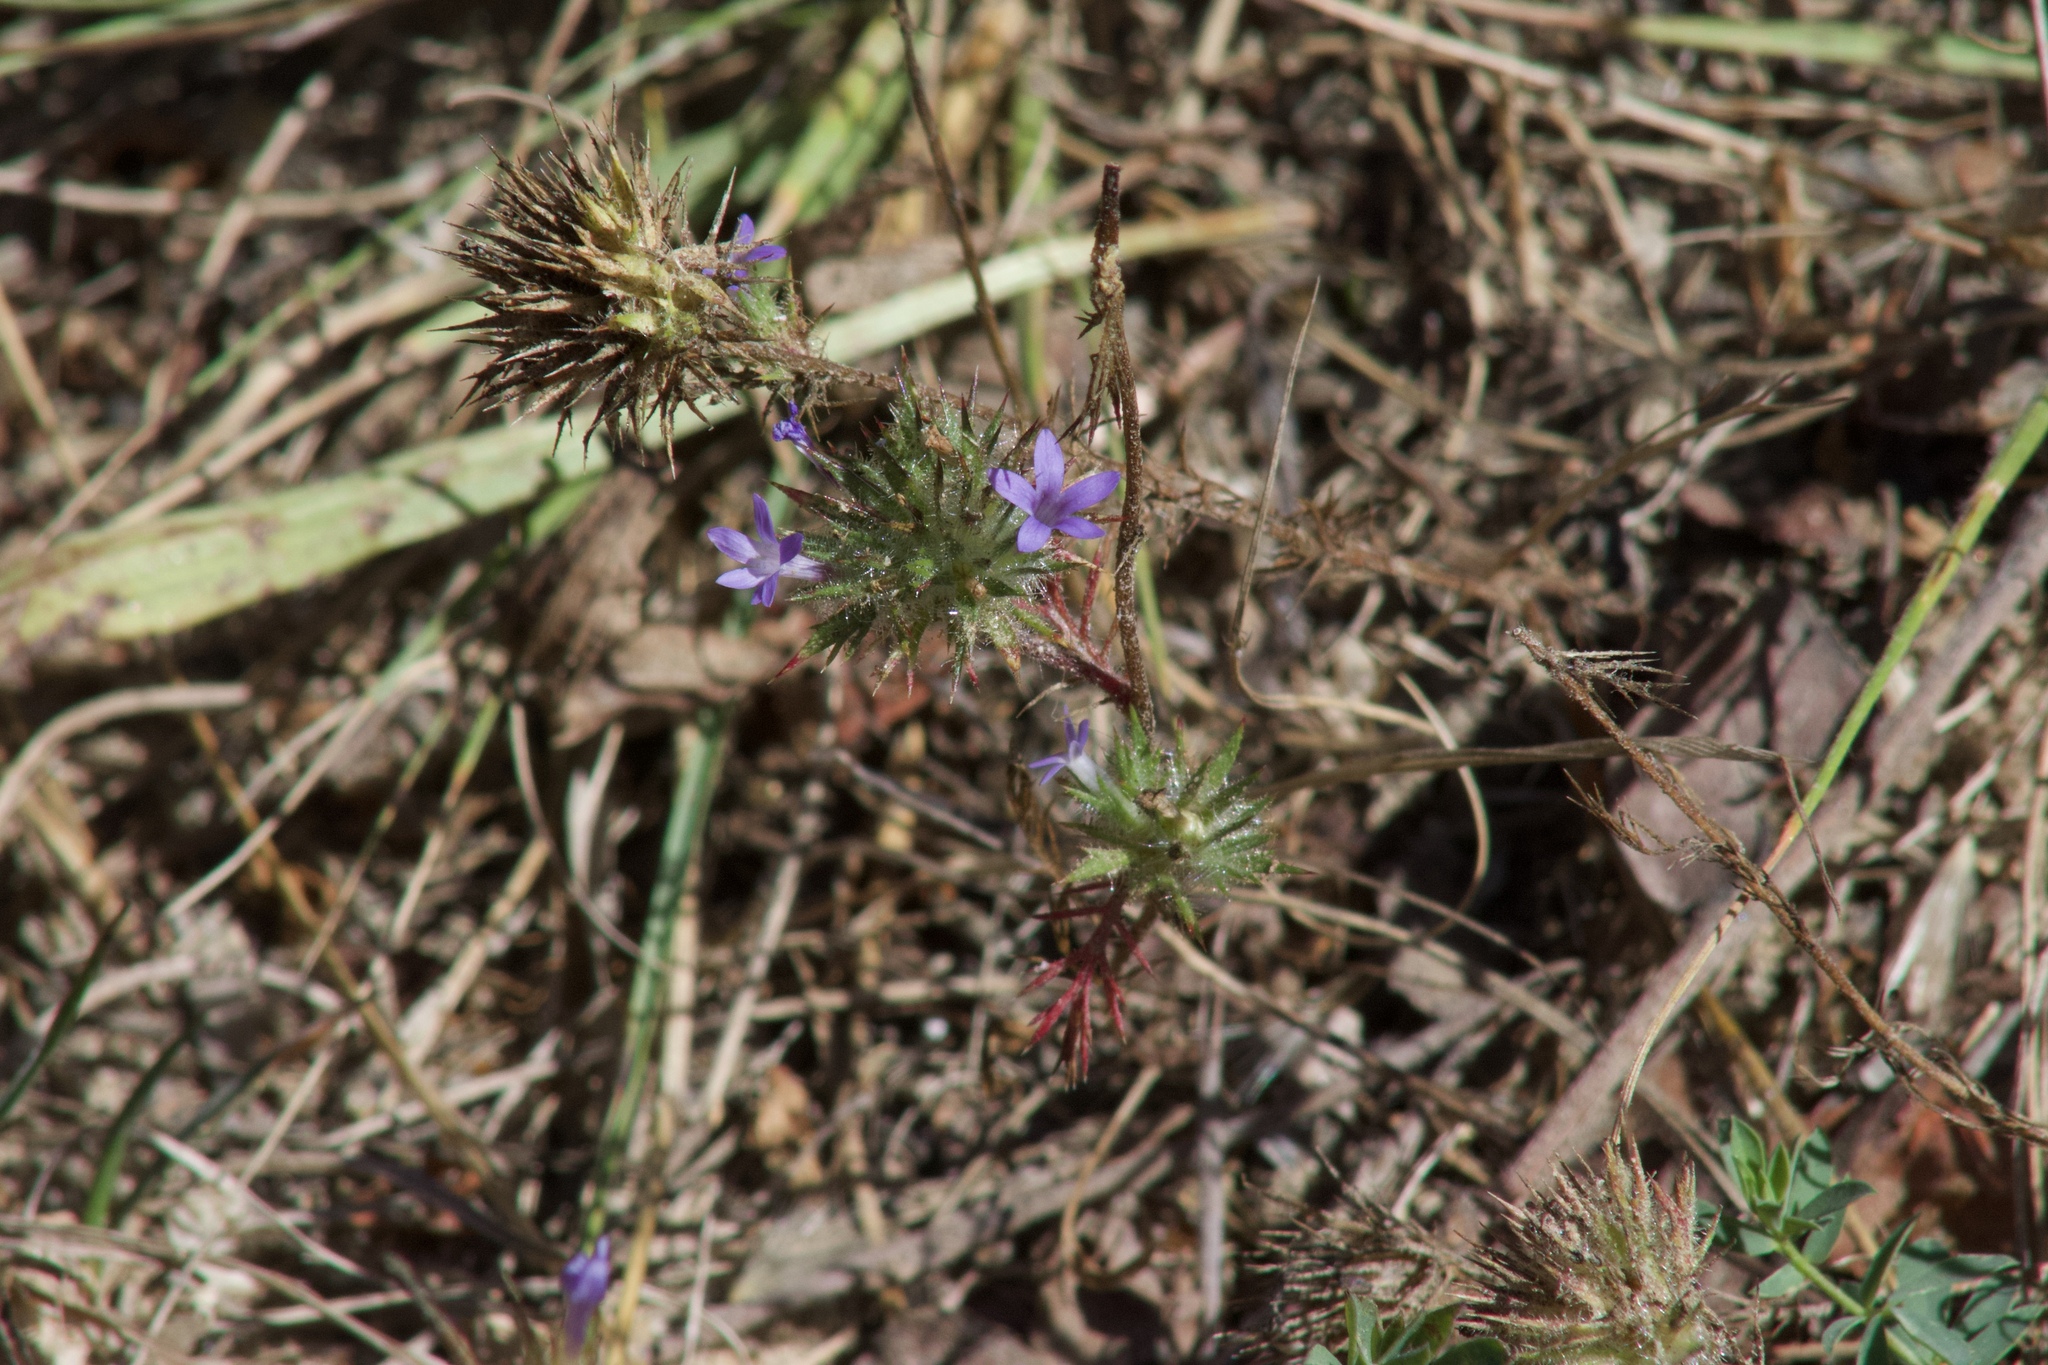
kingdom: Plantae
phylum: Tracheophyta
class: Magnoliopsida
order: Ericales
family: Polemoniaceae
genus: Navarretia
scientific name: Navarretia squarrosa
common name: Skunkweed
